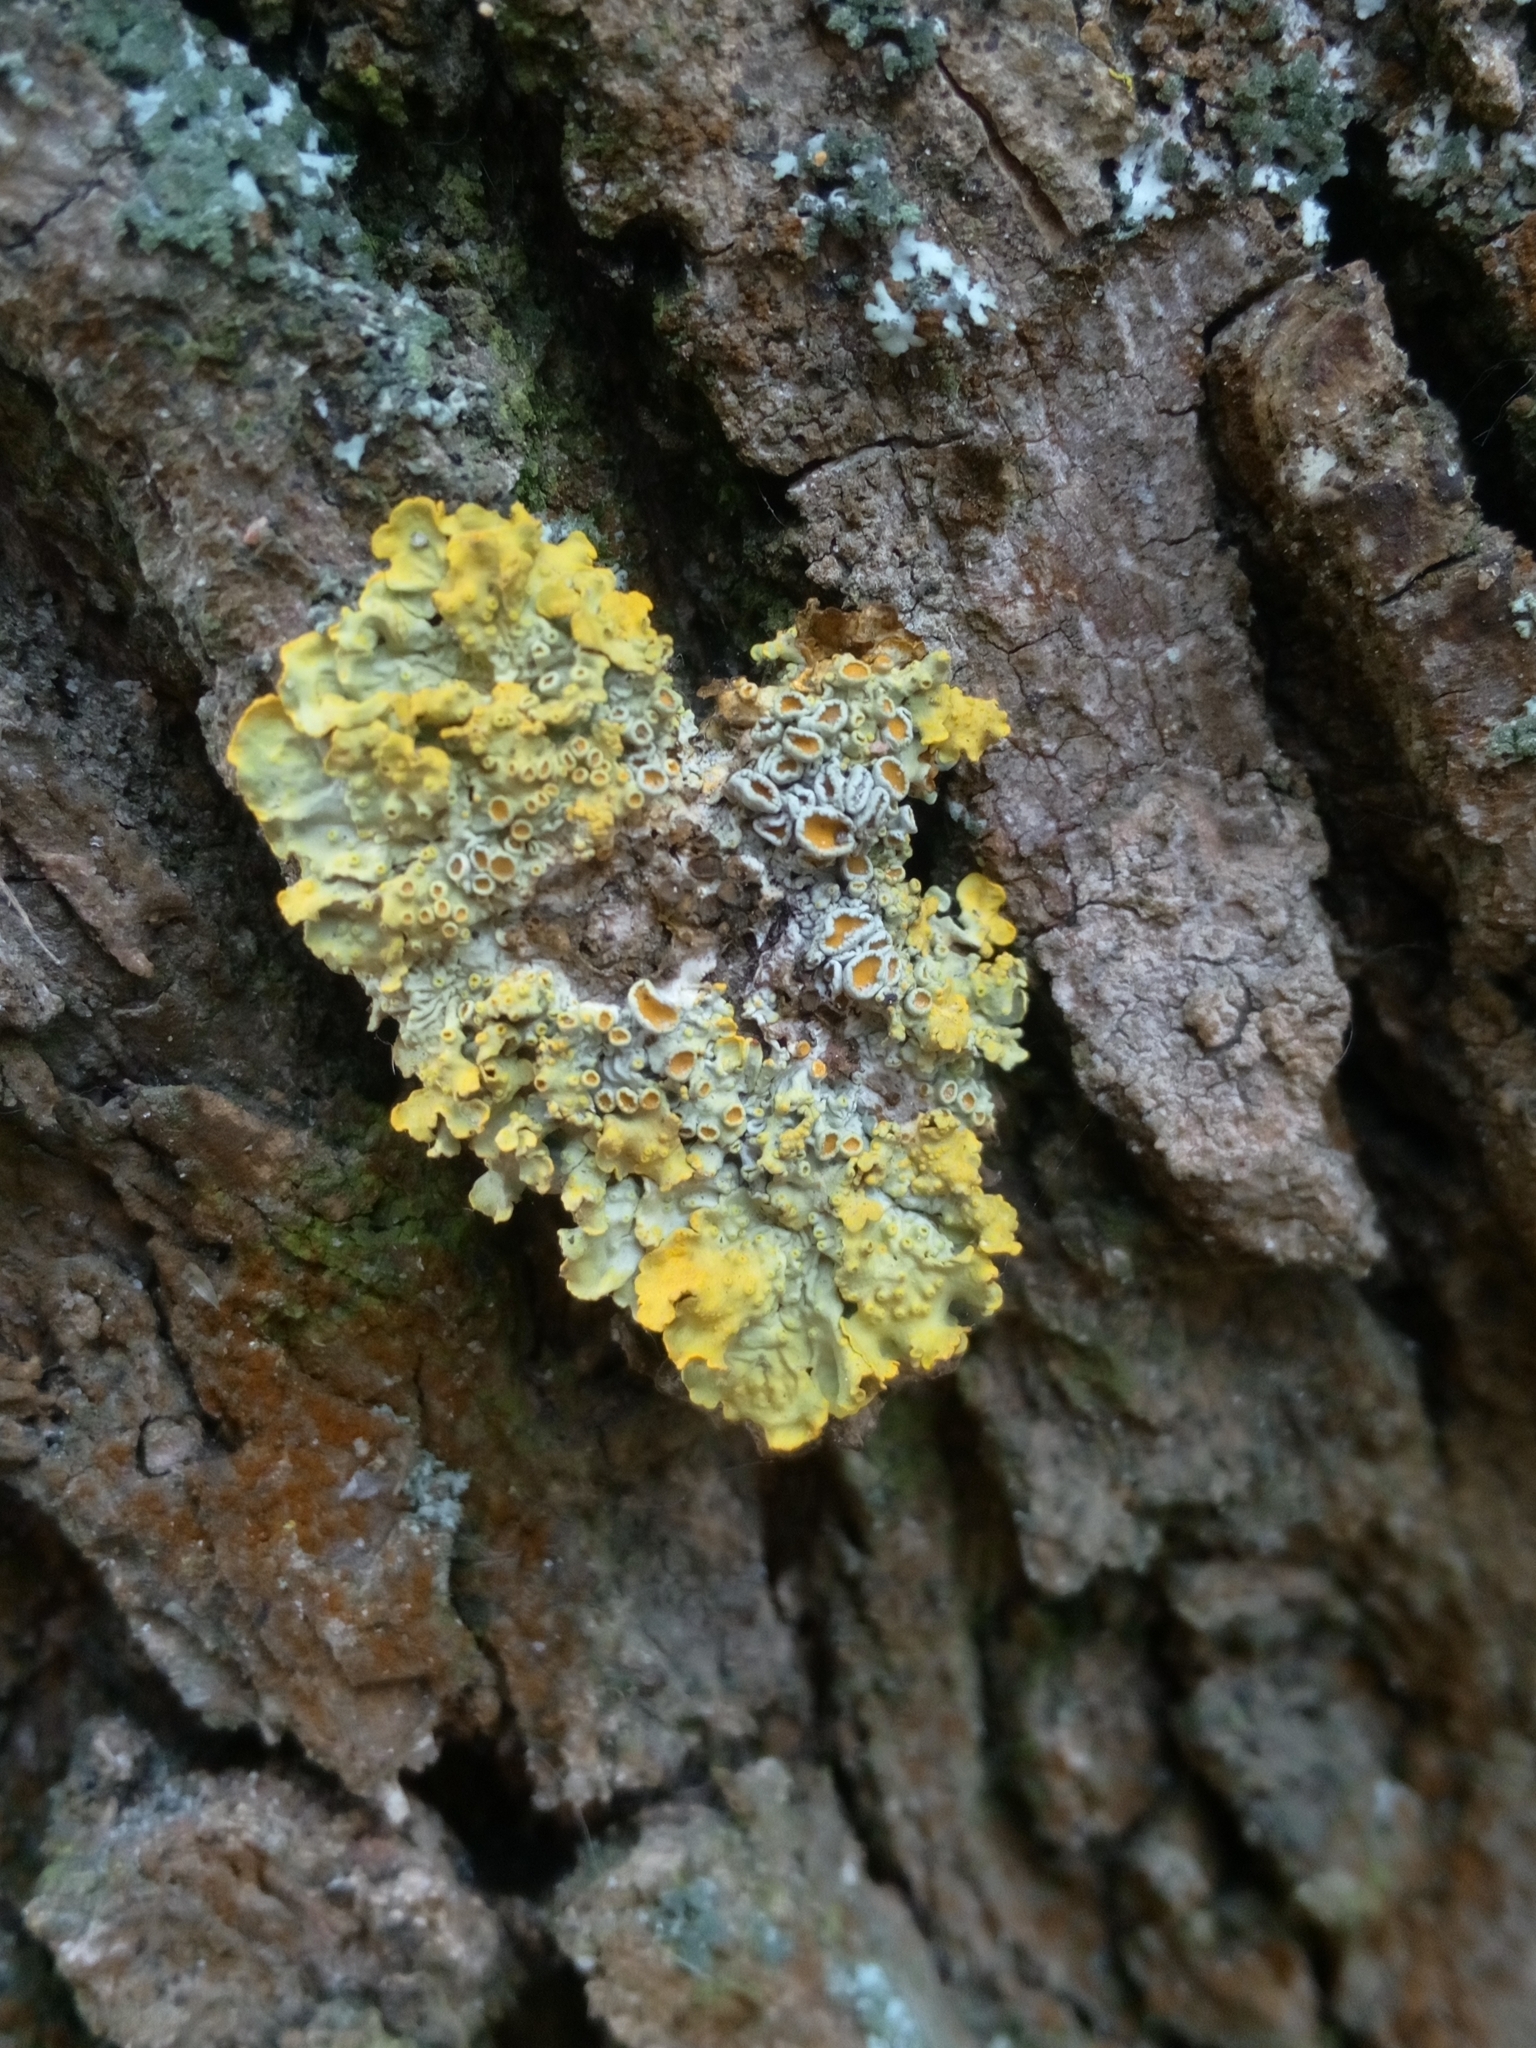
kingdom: Fungi
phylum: Ascomycota
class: Lecanoromycetes
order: Teloschistales
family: Teloschistaceae
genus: Xanthoria
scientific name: Xanthoria parietina
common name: Common orange lichen
